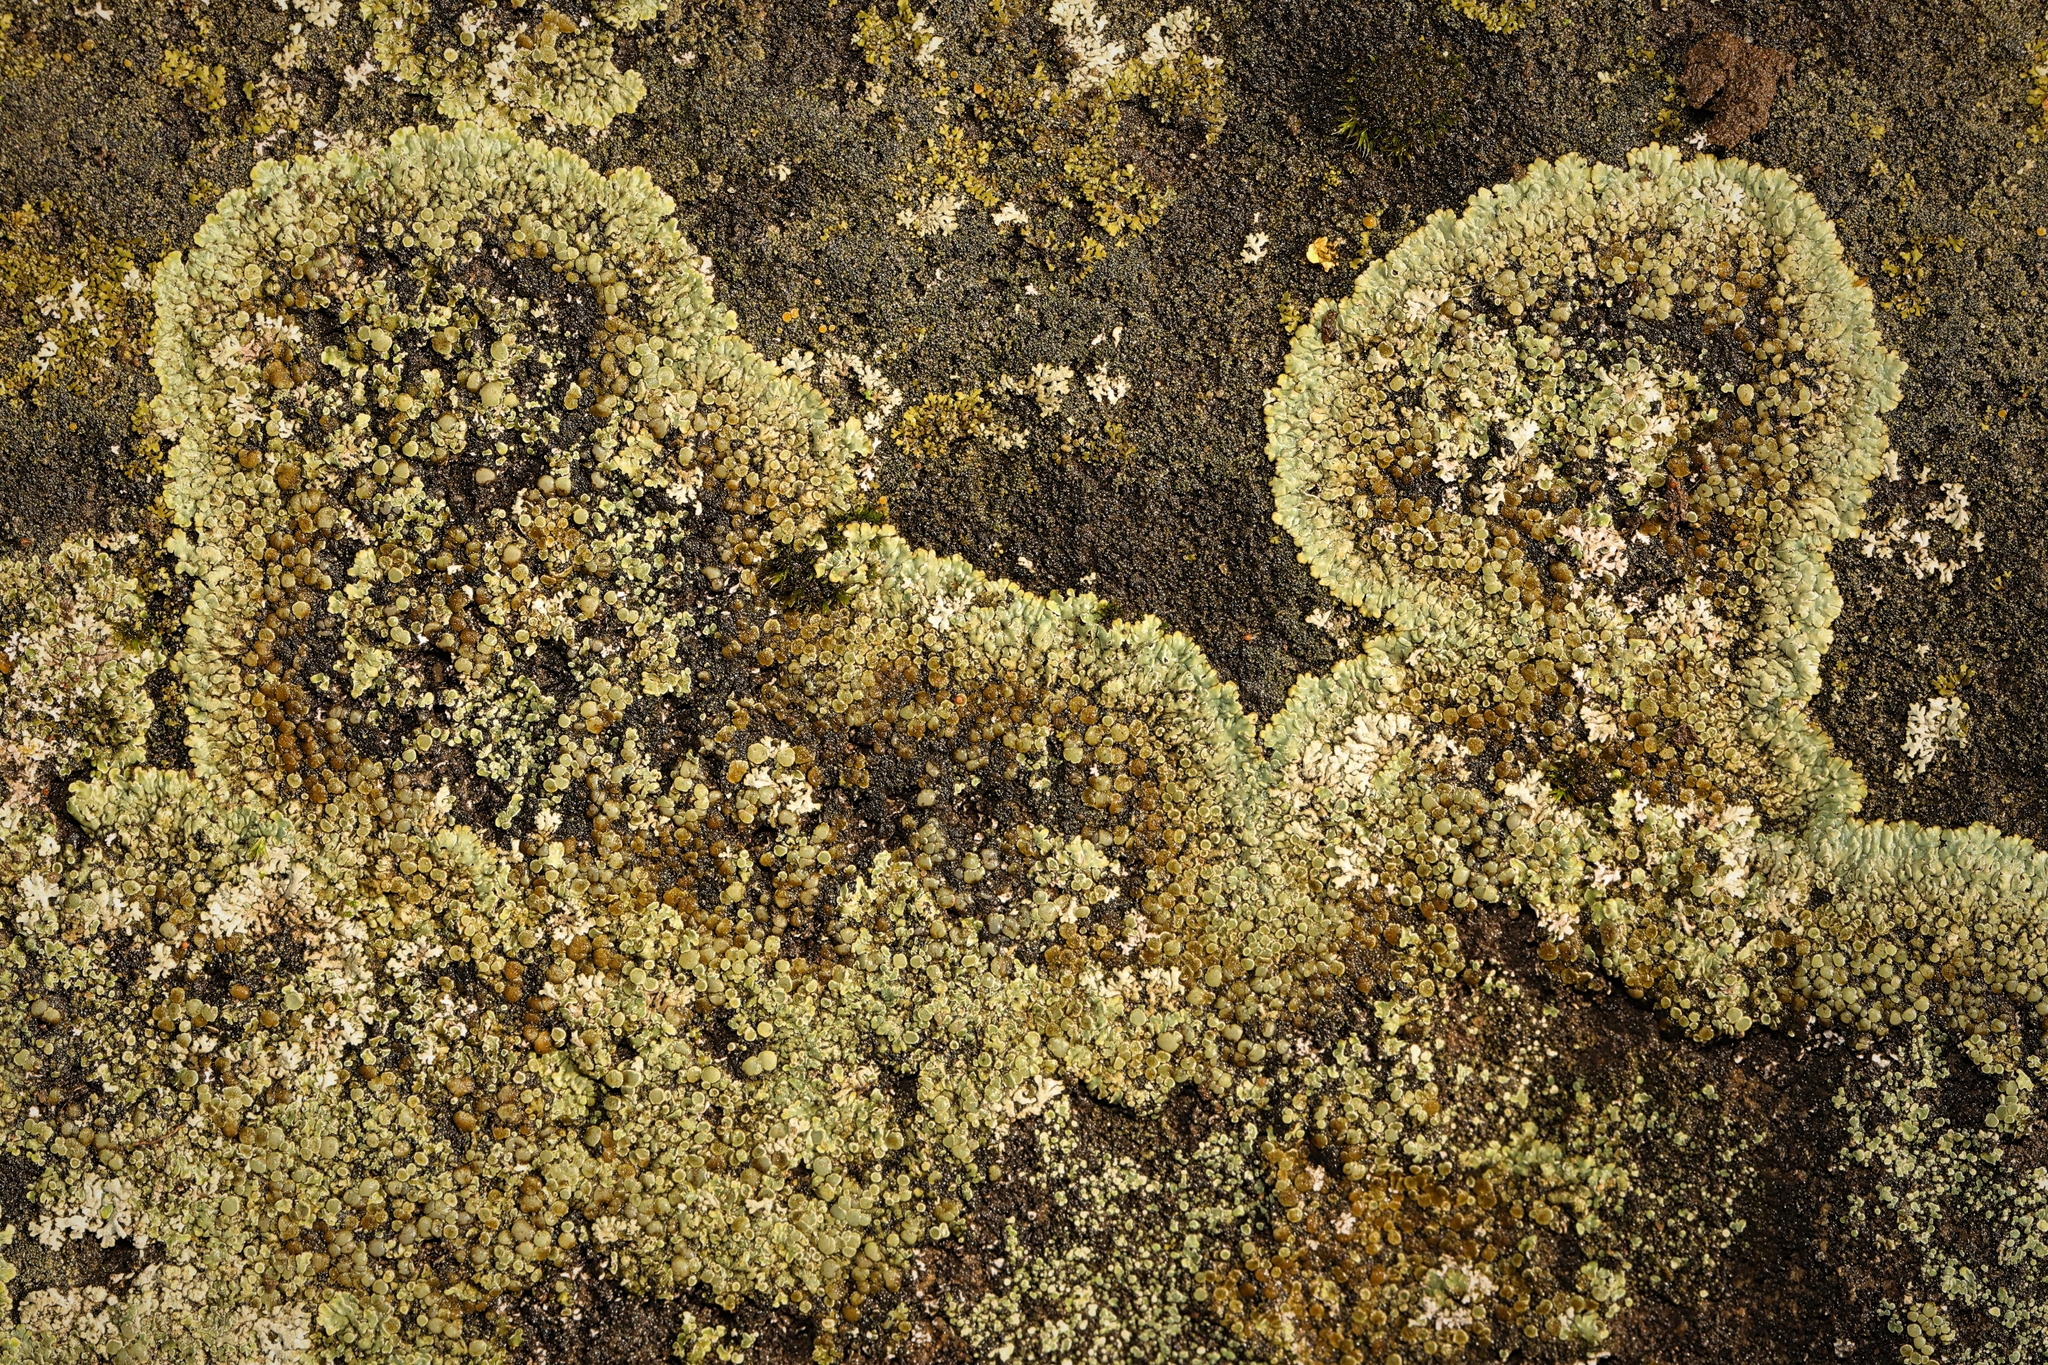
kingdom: Fungi
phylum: Ascomycota
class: Lecanoromycetes
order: Lecanorales
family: Lecanoraceae
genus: Protoparmeliopsis
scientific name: Protoparmeliopsis muralis
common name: Stonewall rim lichen
